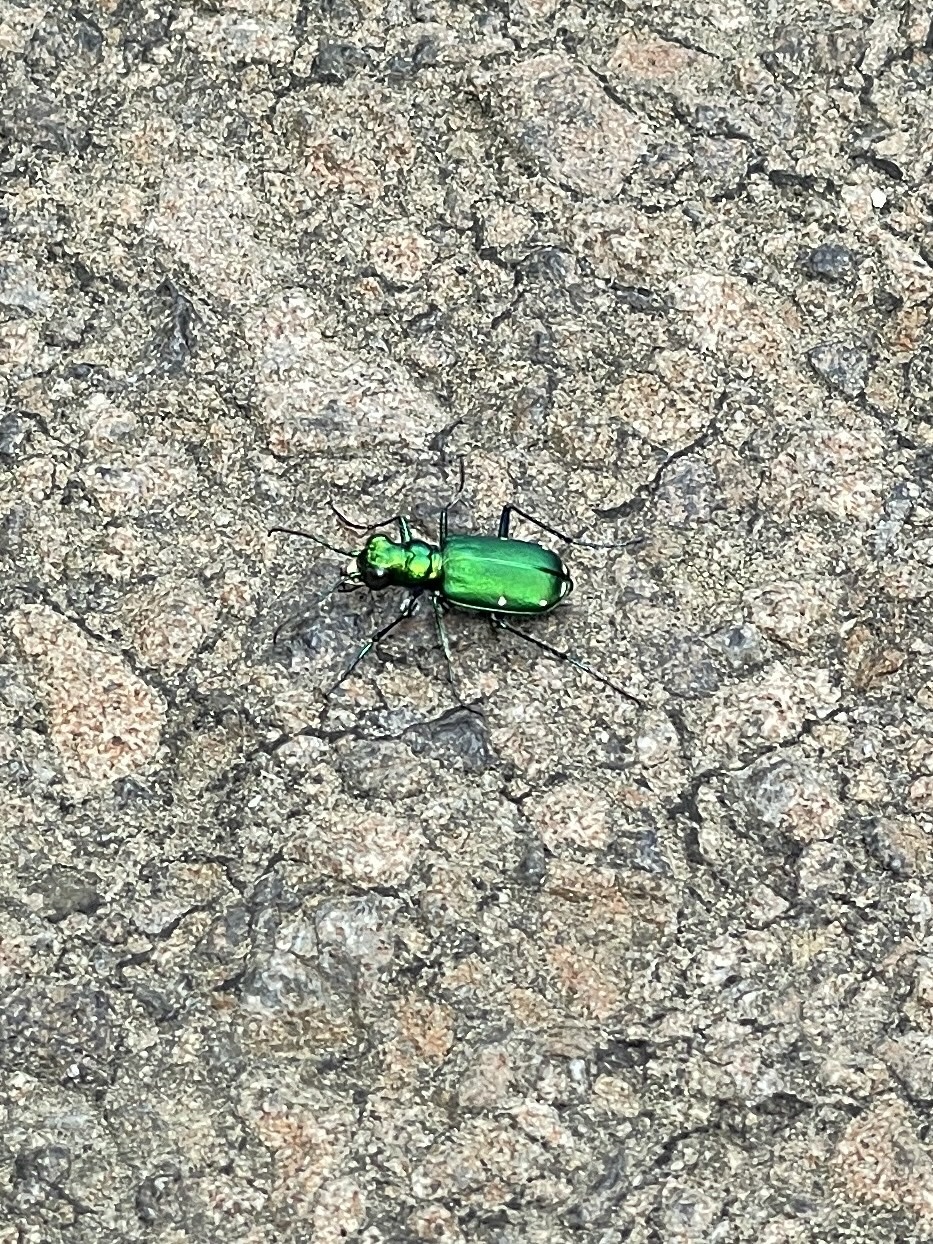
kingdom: Animalia
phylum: Arthropoda
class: Insecta
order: Coleoptera
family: Carabidae
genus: Cicindela
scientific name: Cicindela sexguttata
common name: Six-spotted tiger beetle
